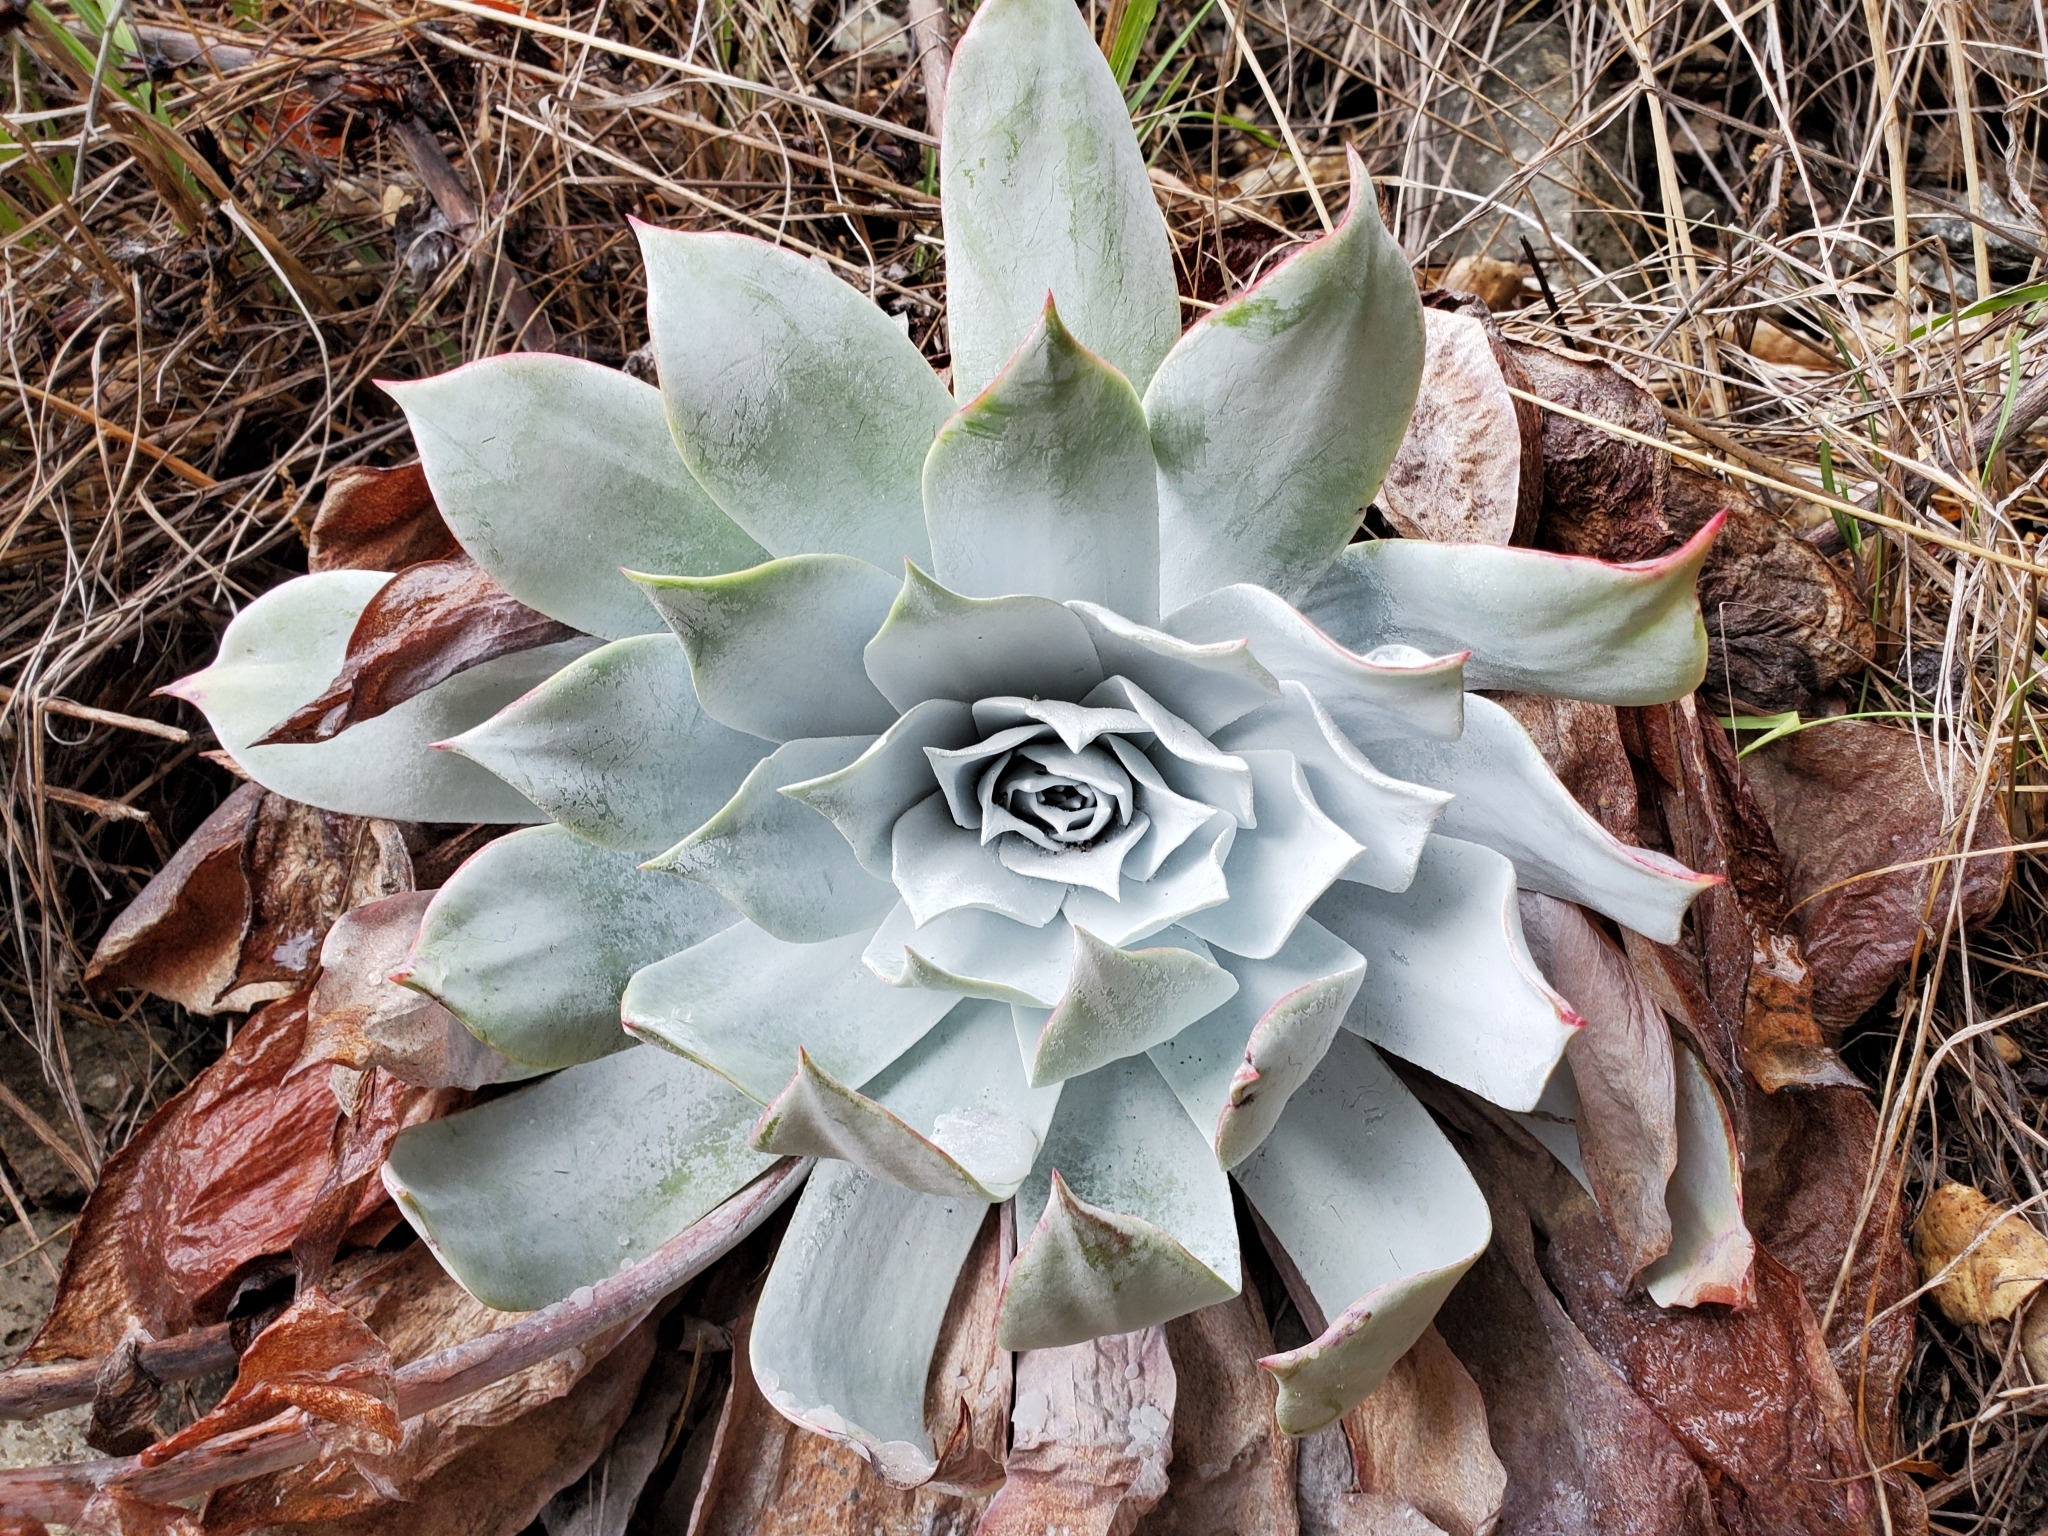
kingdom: Plantae
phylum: Tracheophyta
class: Magnoliopsida
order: Saxifragales
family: Crassulaceae
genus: Dudleya
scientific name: Dudleya pulverulenta
